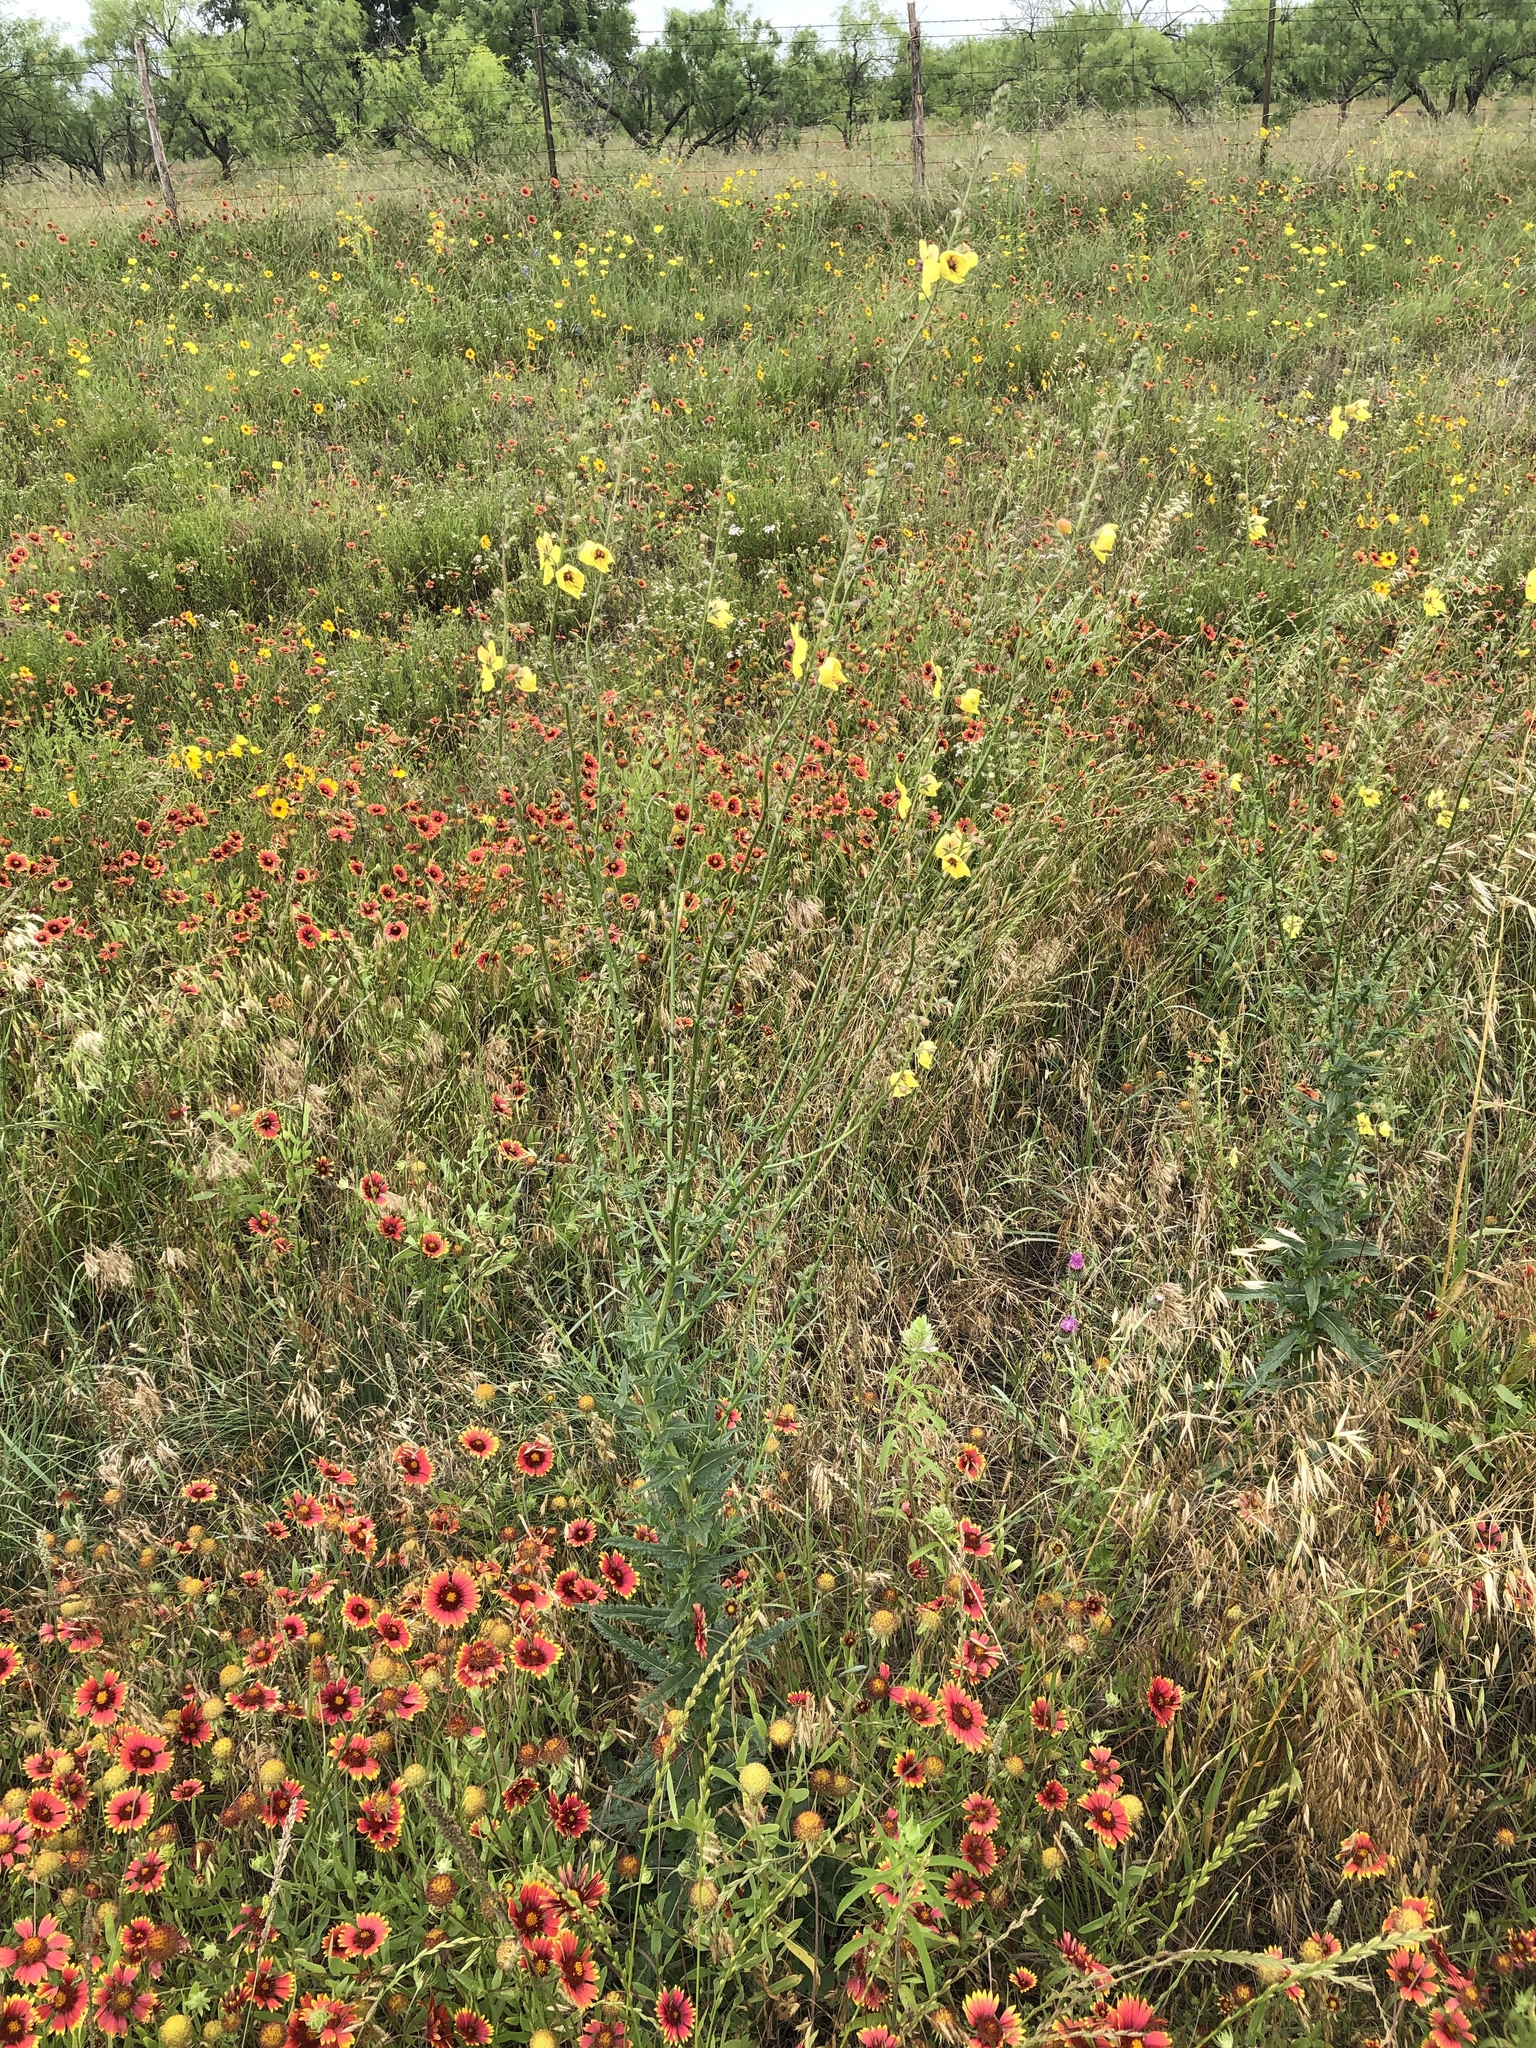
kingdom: Plantae
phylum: Tracheophyta
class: Magnoliopsida
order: Lamiales
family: Scrophulariaceae
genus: Verbascum
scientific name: Verbascum blattaria
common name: Moth mullein
